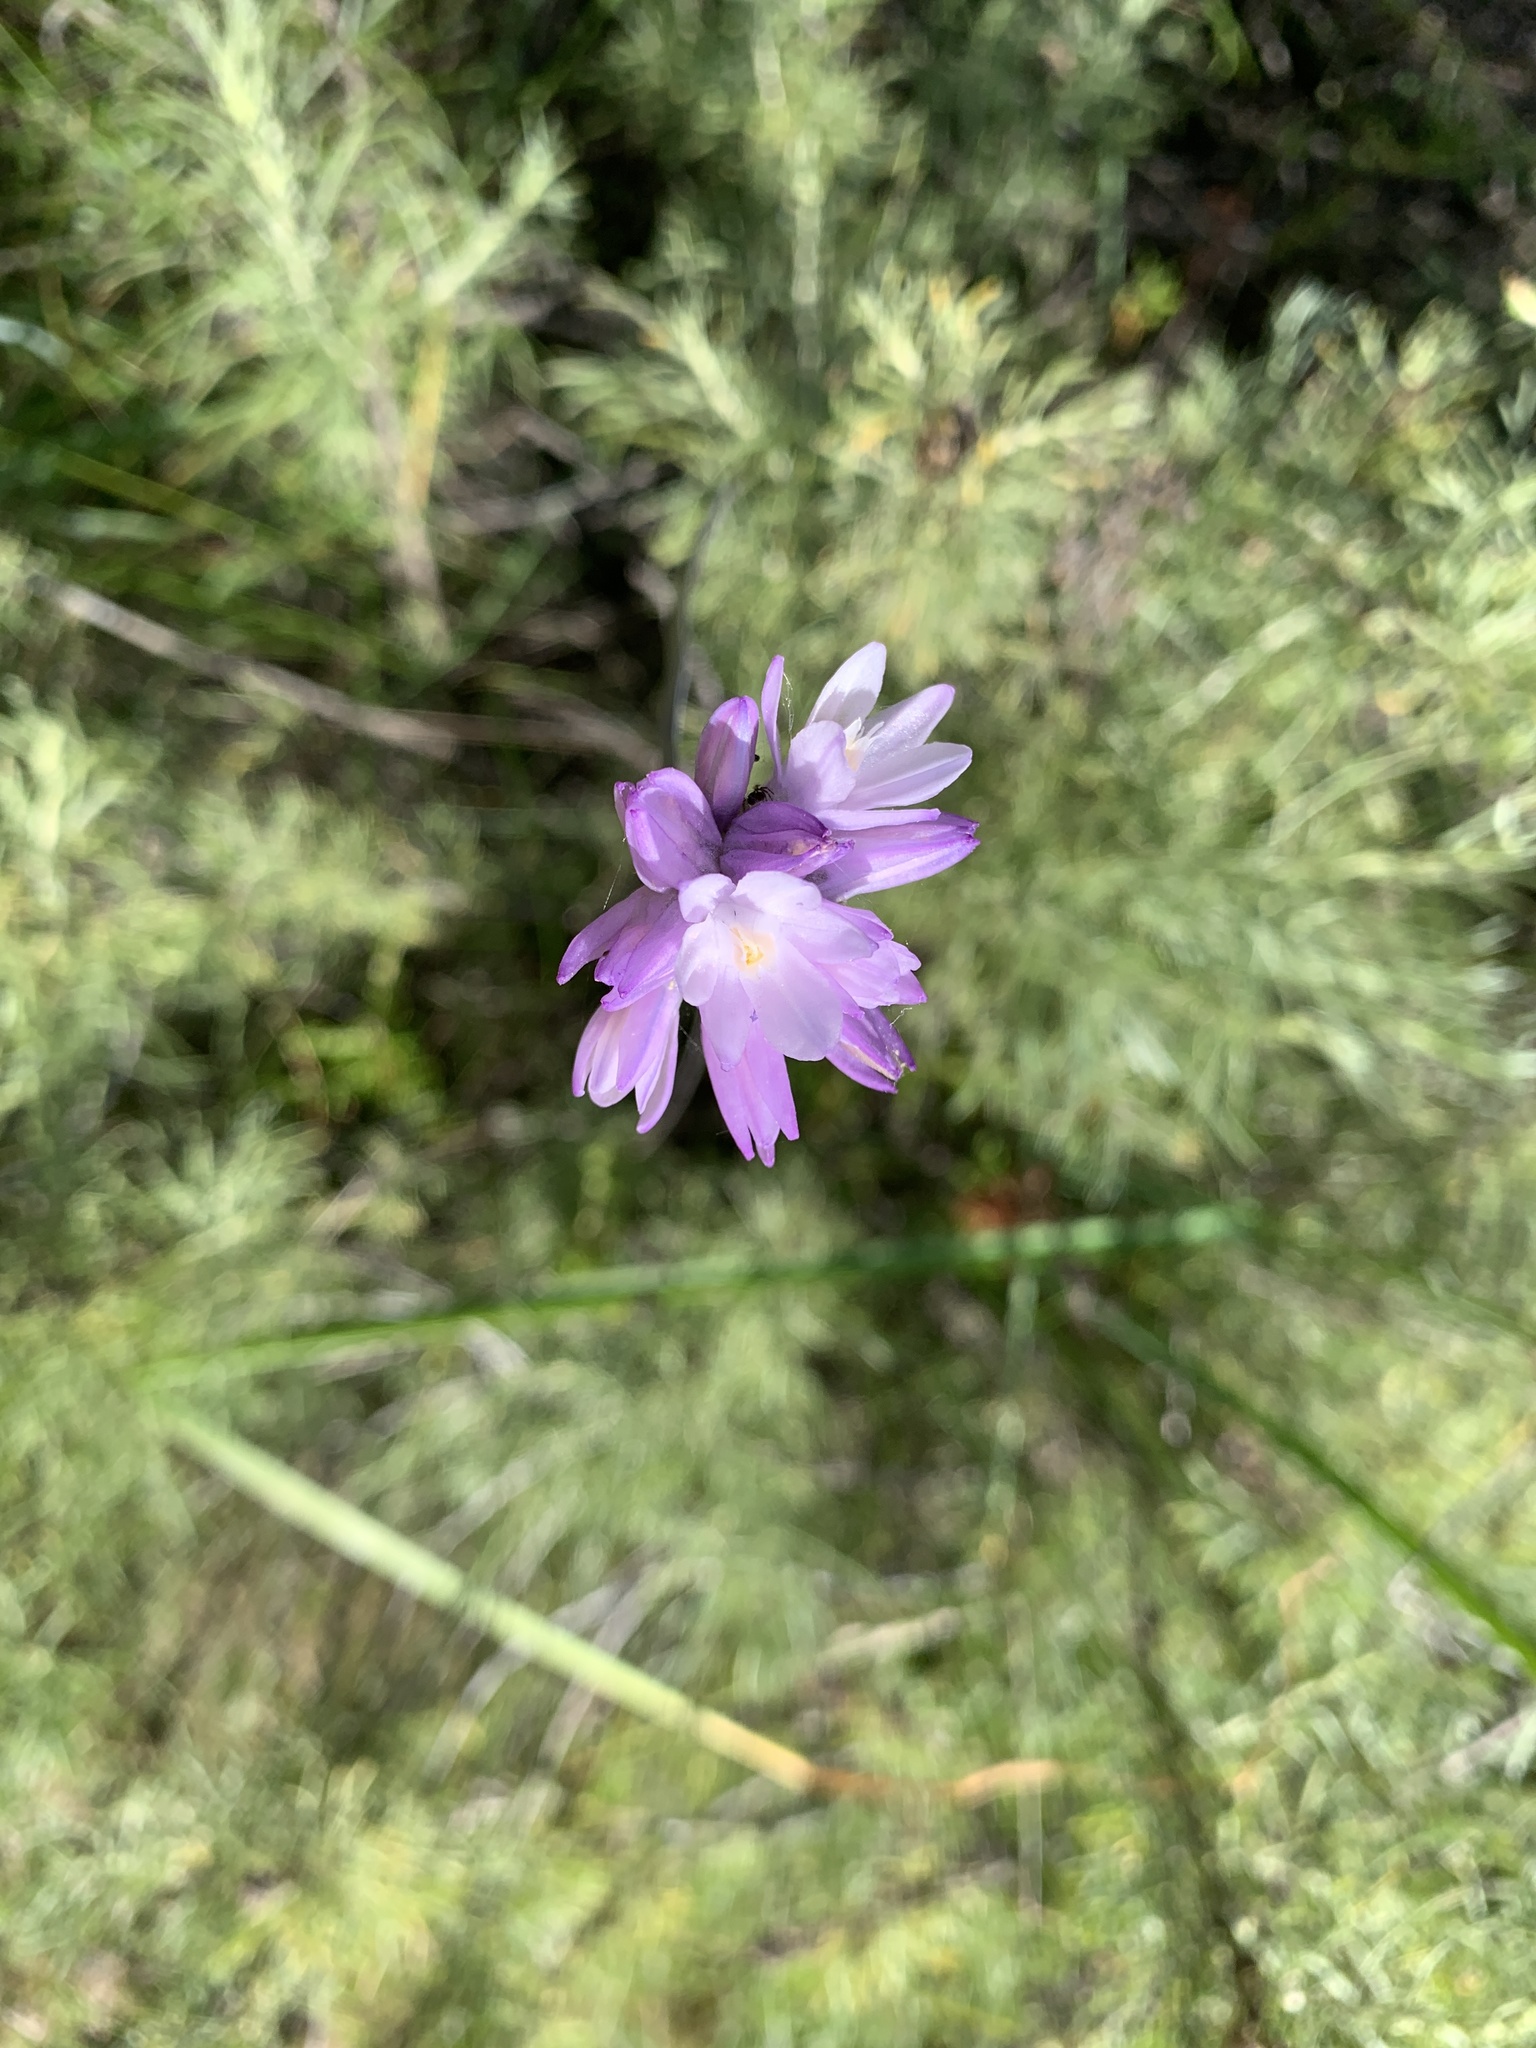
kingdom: Plantae
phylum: Tracheophyta
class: Liliopsida
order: Asparagales
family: Asparagaceae
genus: Dipterostemon
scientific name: Dipterostemon capitatus
